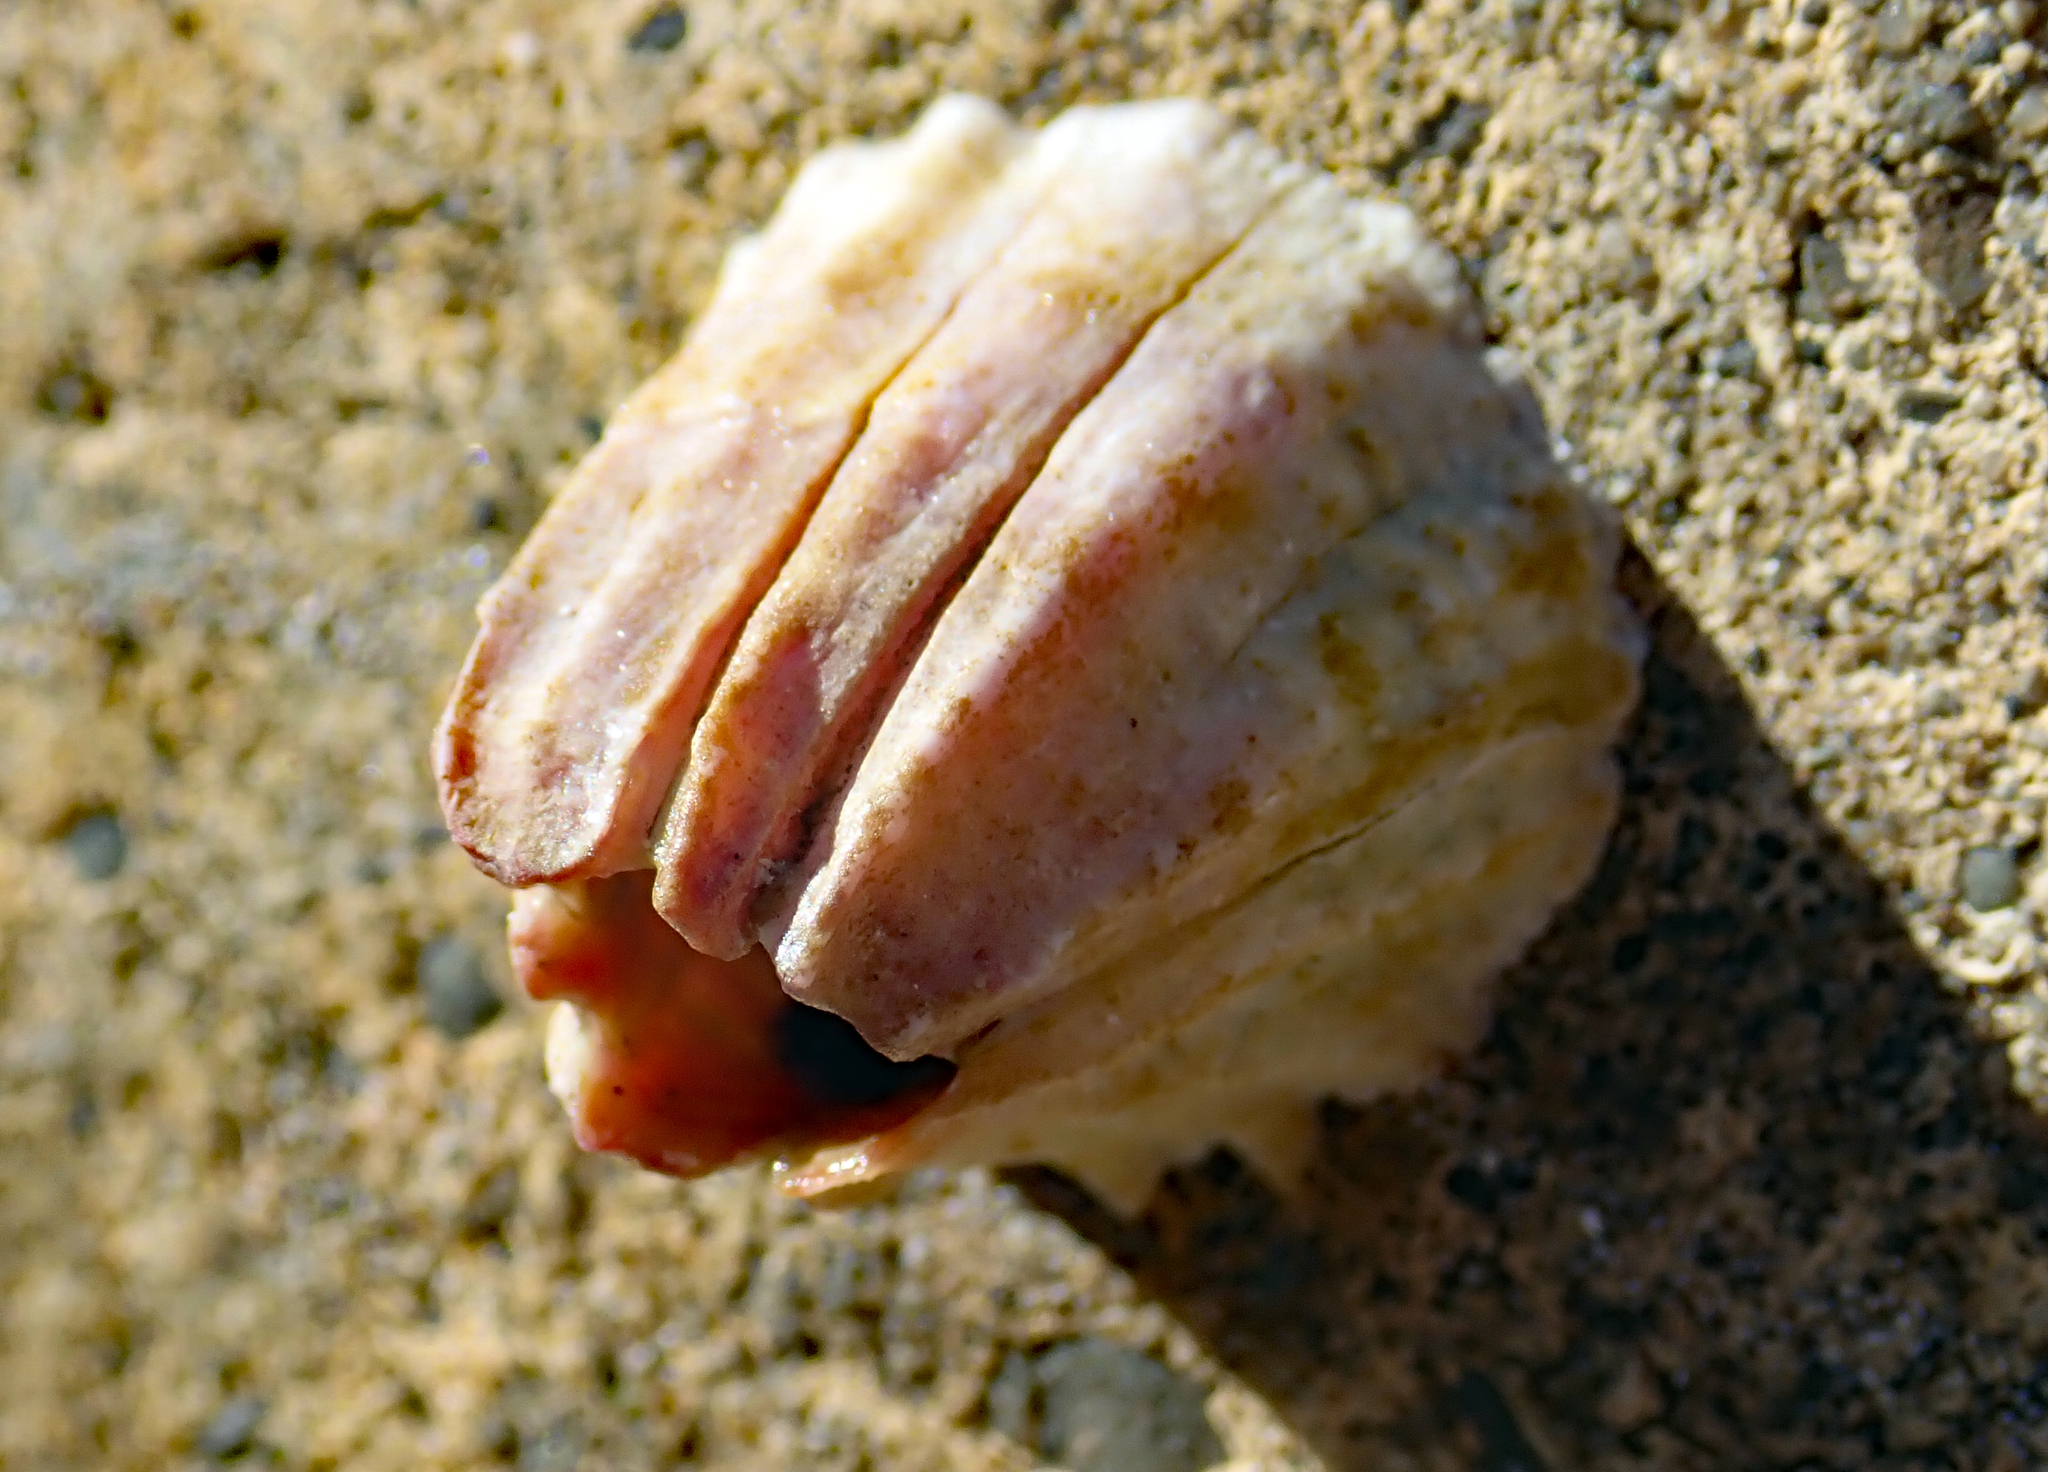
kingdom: Animalia
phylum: Arthropoda
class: Maxillopoda
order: Sessilia
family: Balanidae
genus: Notobalanus
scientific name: Notobalanus vestitus
